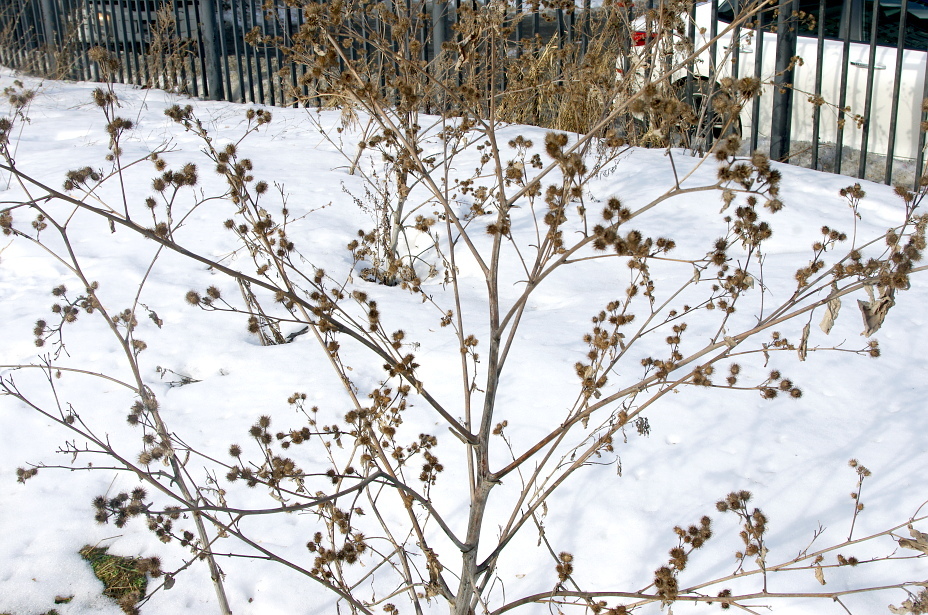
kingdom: Plantae
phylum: Tracheophyta
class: Magnoliopsida
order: Asterales
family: Asteraceae
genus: Arctium
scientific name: Arctium tomentosum
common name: Woolly burdock
